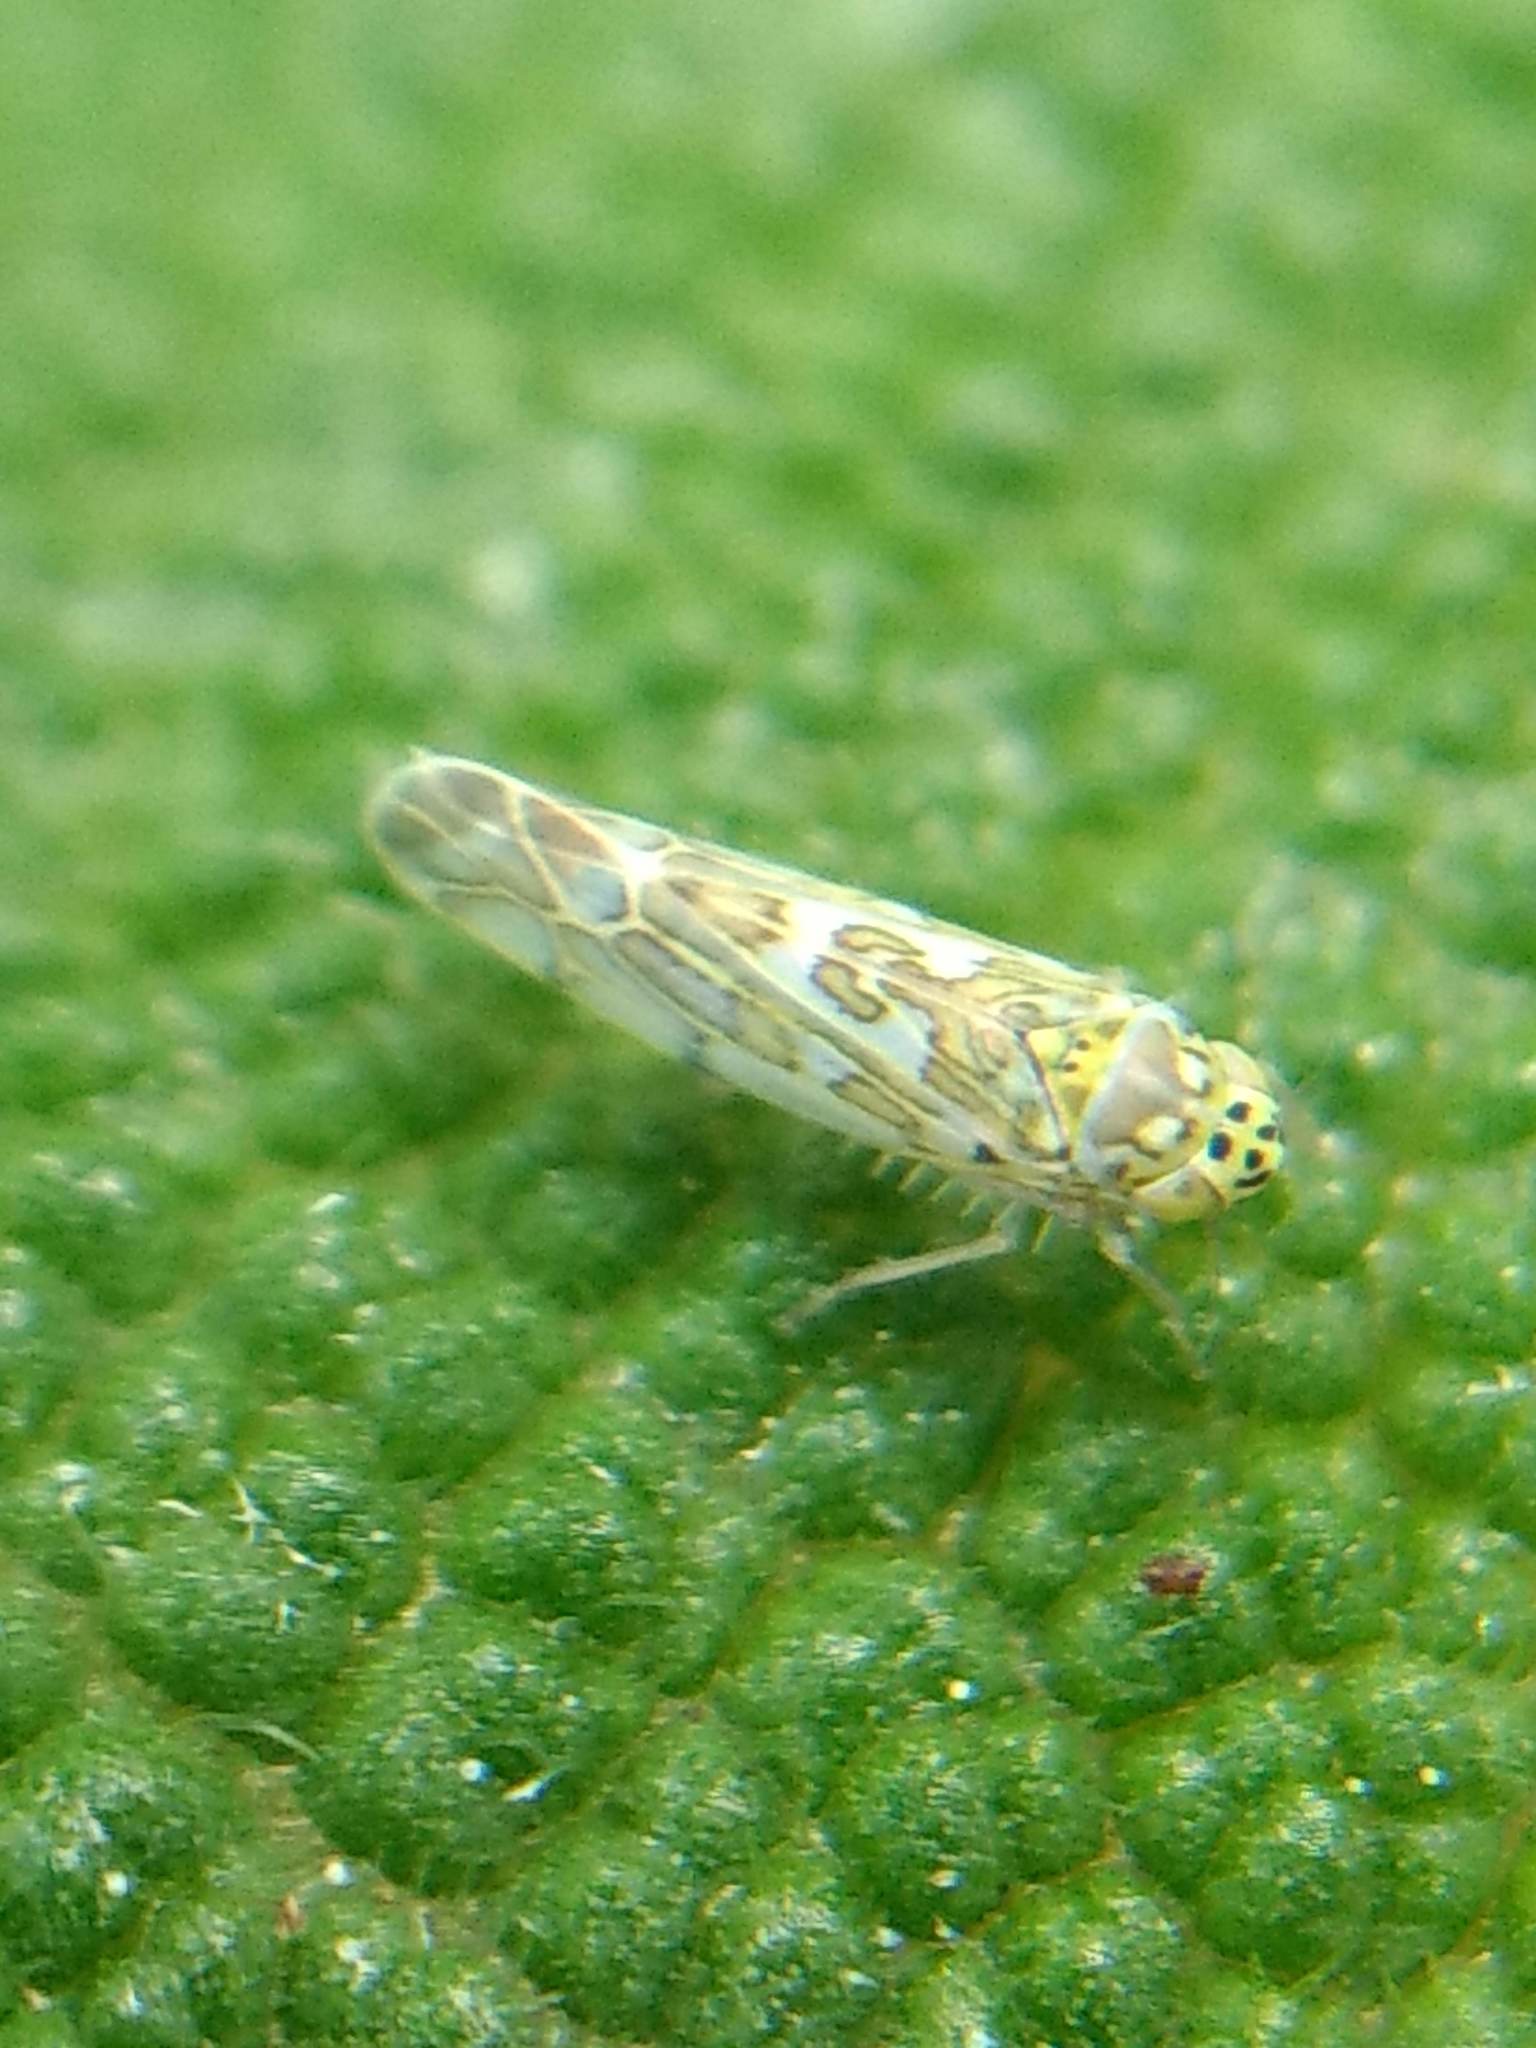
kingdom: Animalia
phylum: Arthropoda
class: Insecta
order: Hemiptera
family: Cicadellidae
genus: Eupteryx
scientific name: Eupteryx decemnotata
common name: Ligurian leafhopper
